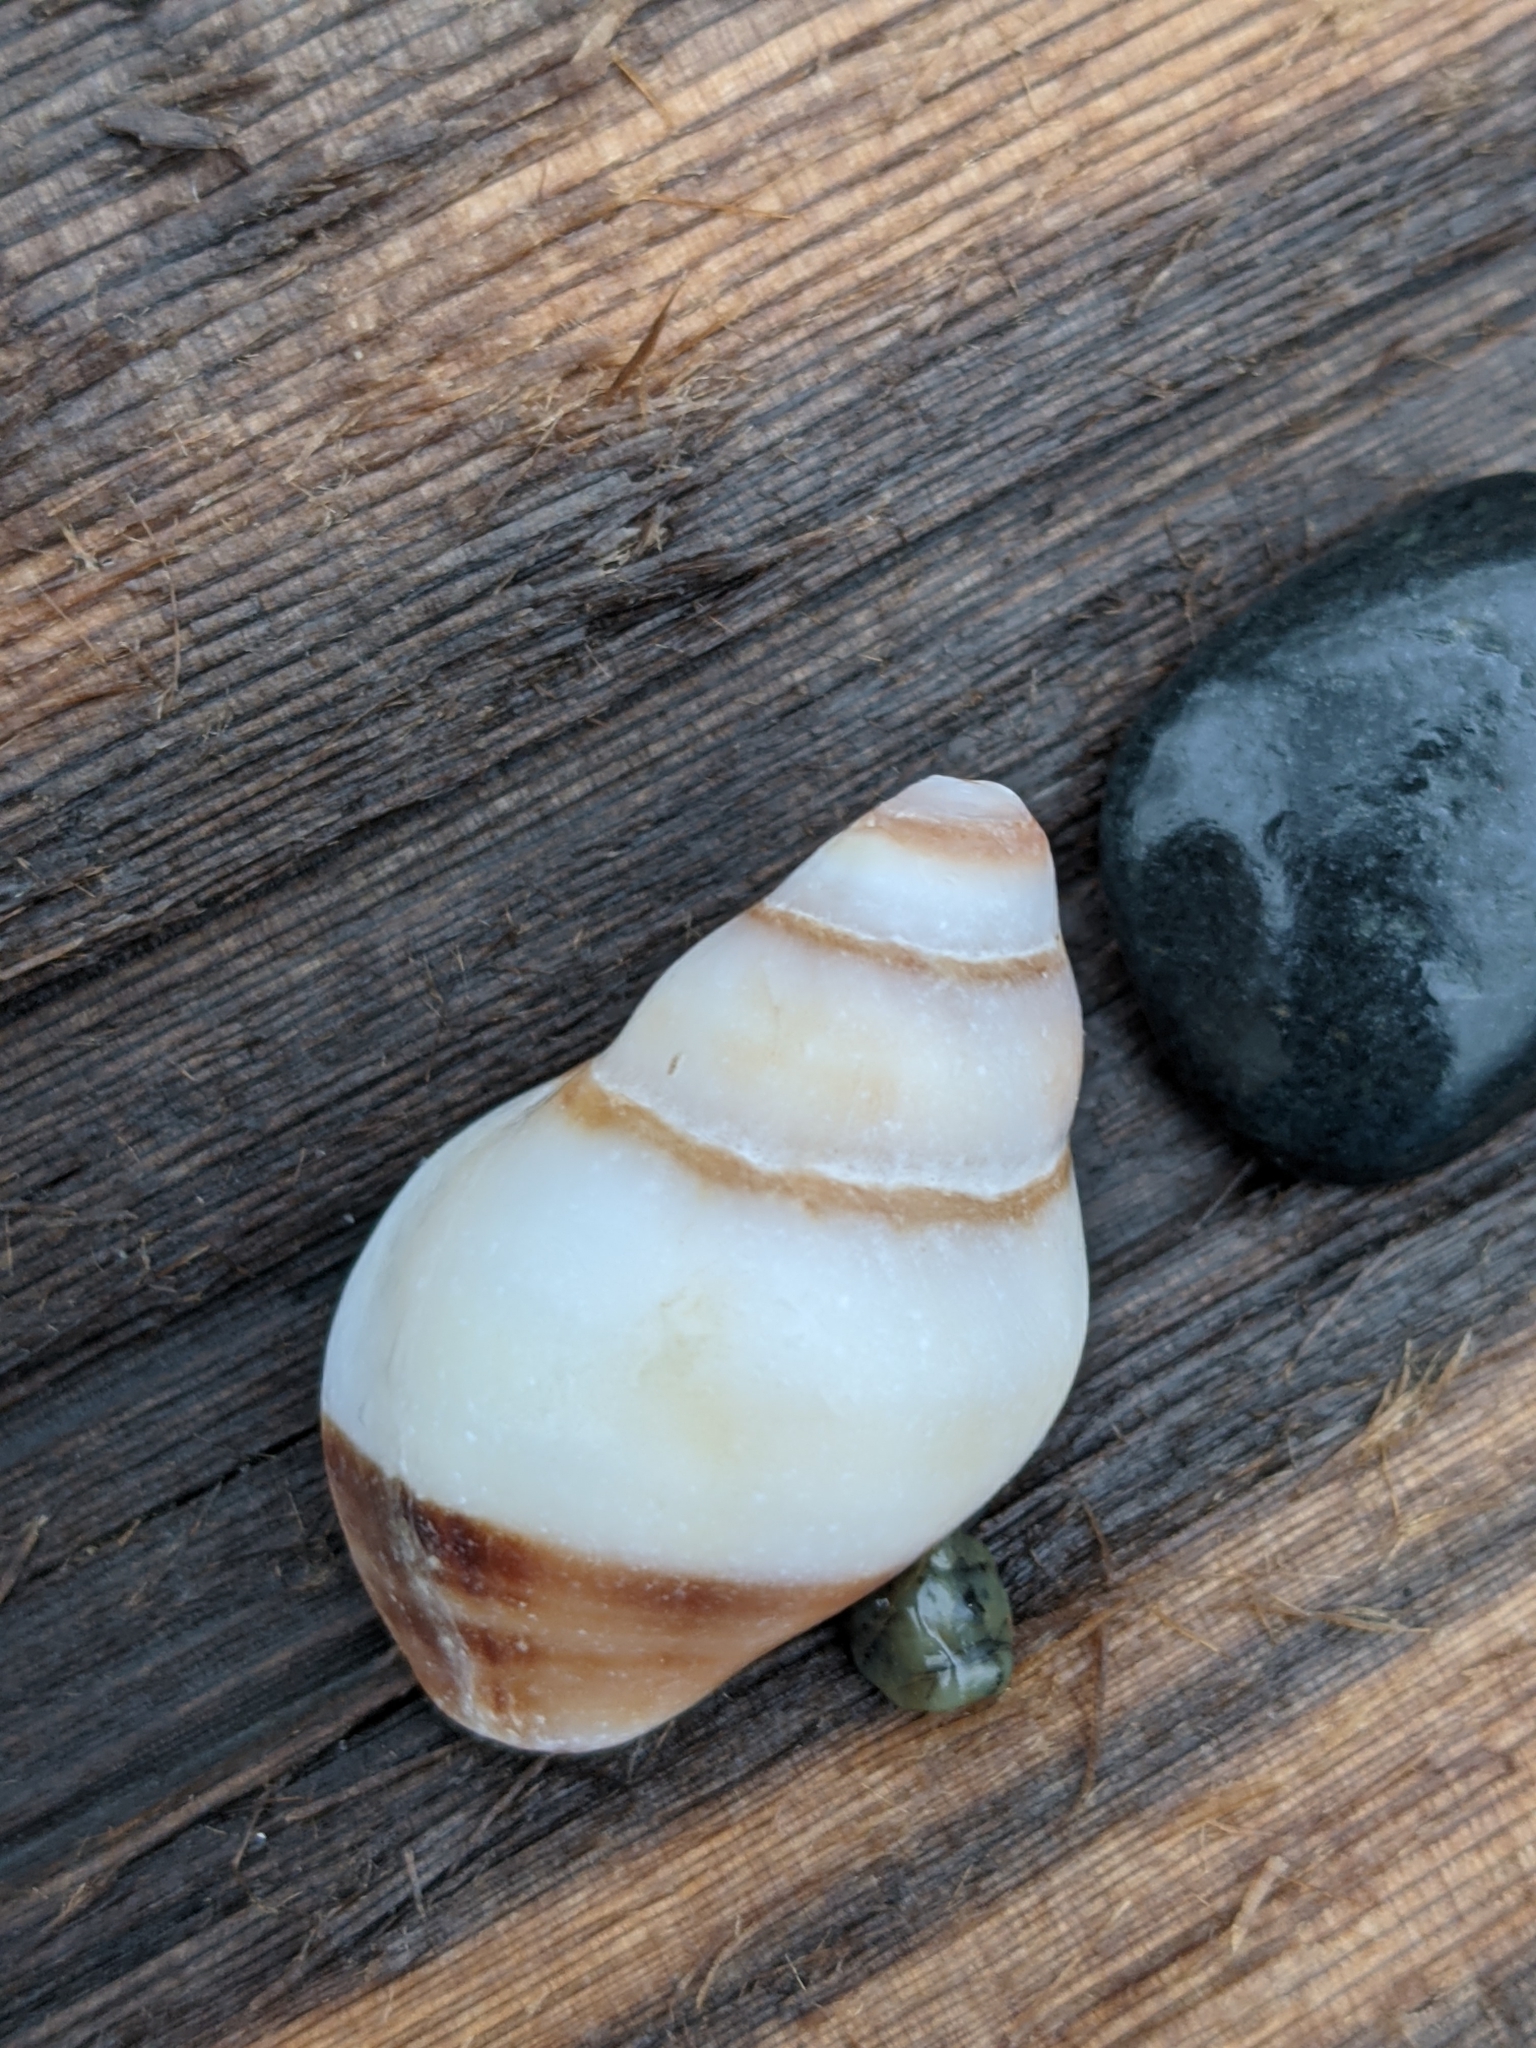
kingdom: Animalia
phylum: Mollusca
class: Gastropoda
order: Neogastropoda
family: Muricidae
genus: Nucella
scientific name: Nucella lamellosa
